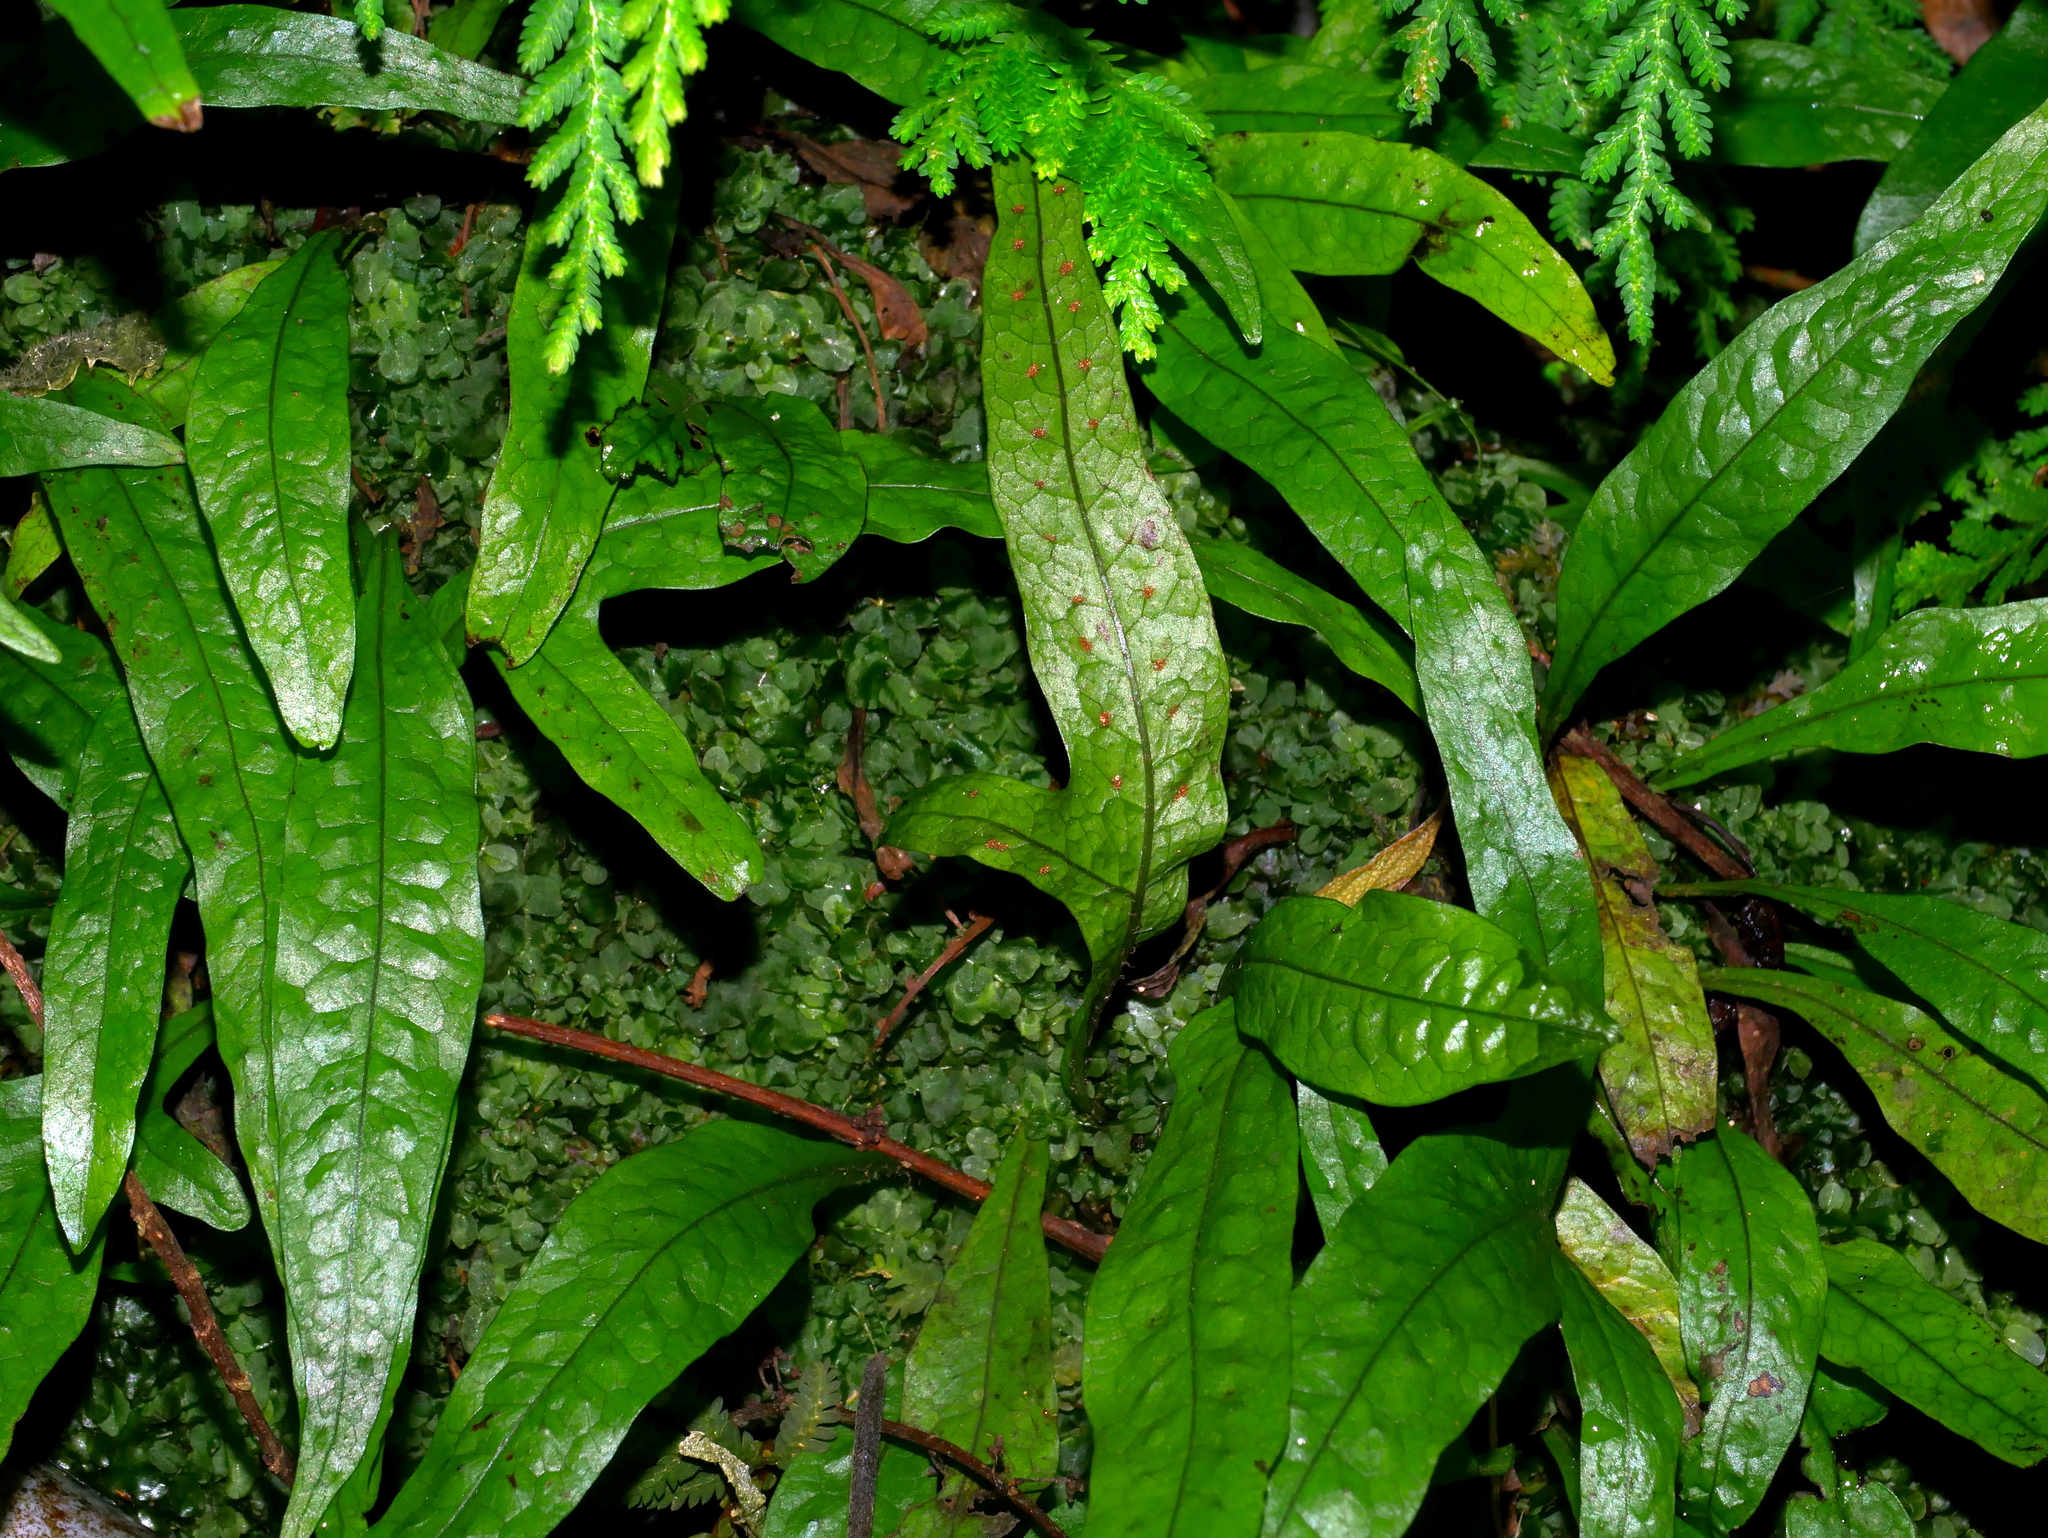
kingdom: Plantae
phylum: Tracheophyta
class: Polypodiopsida
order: Polypodiales
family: Polypodiaceae
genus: Leptochilus
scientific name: Leptochilus pteropus
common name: Java fern
